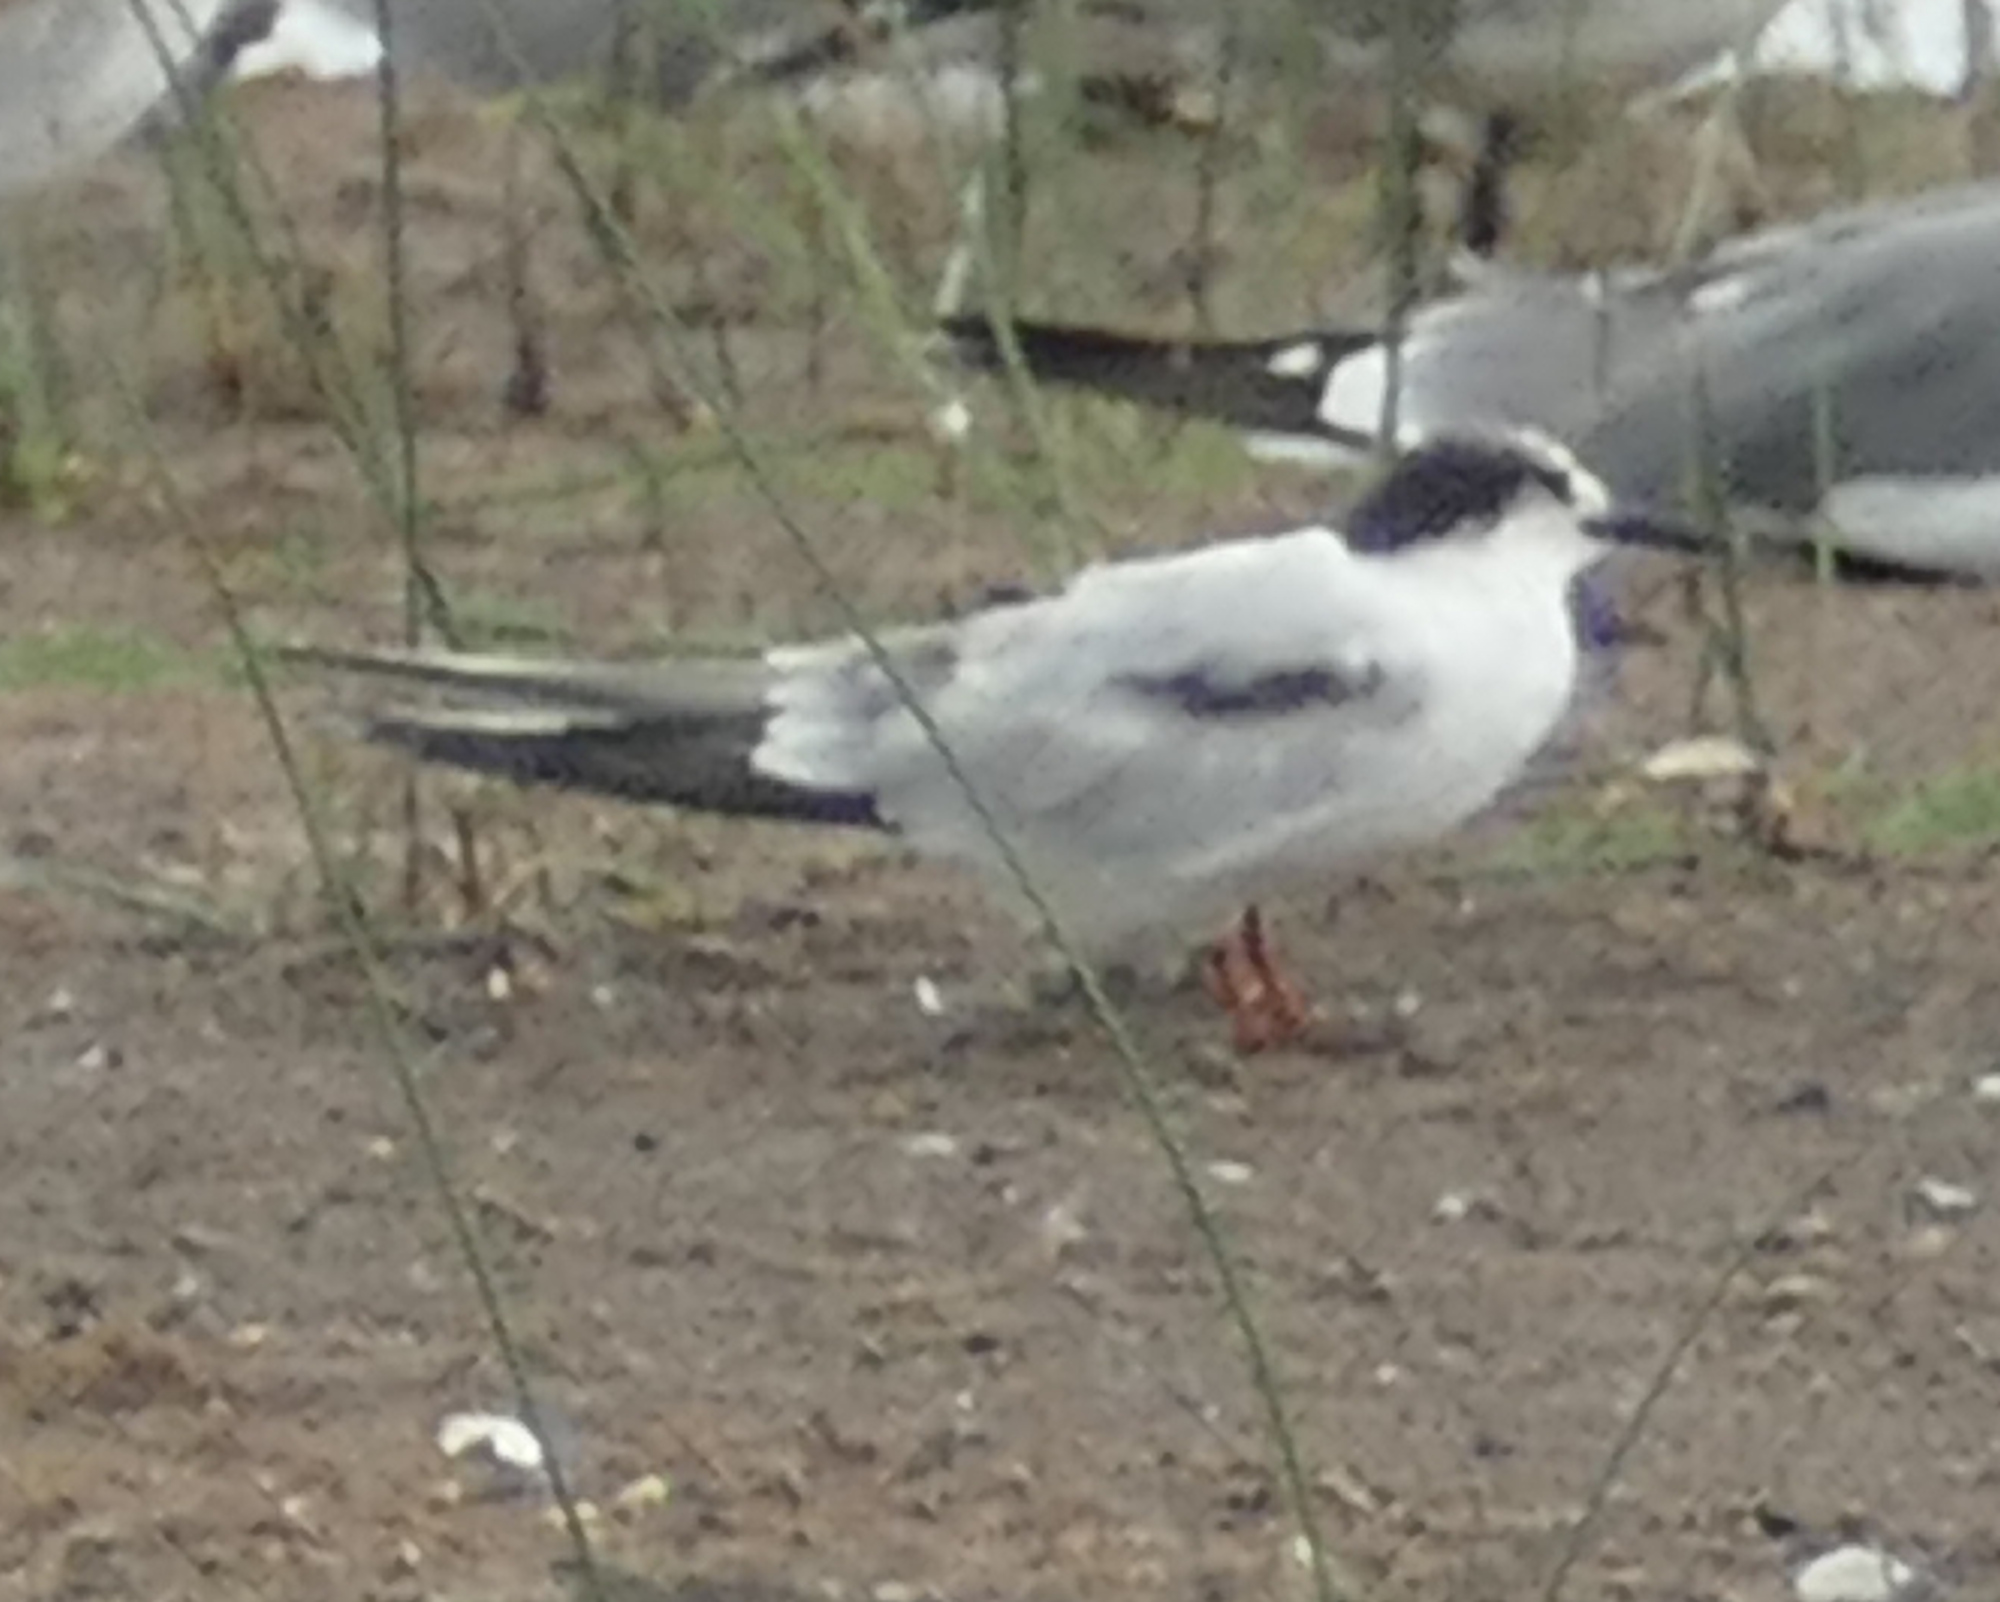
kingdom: Animalia
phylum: Chordata
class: Aves
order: Charadriiformes
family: Laridae
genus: Sterna
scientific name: Sterna hirundo
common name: Common tern
